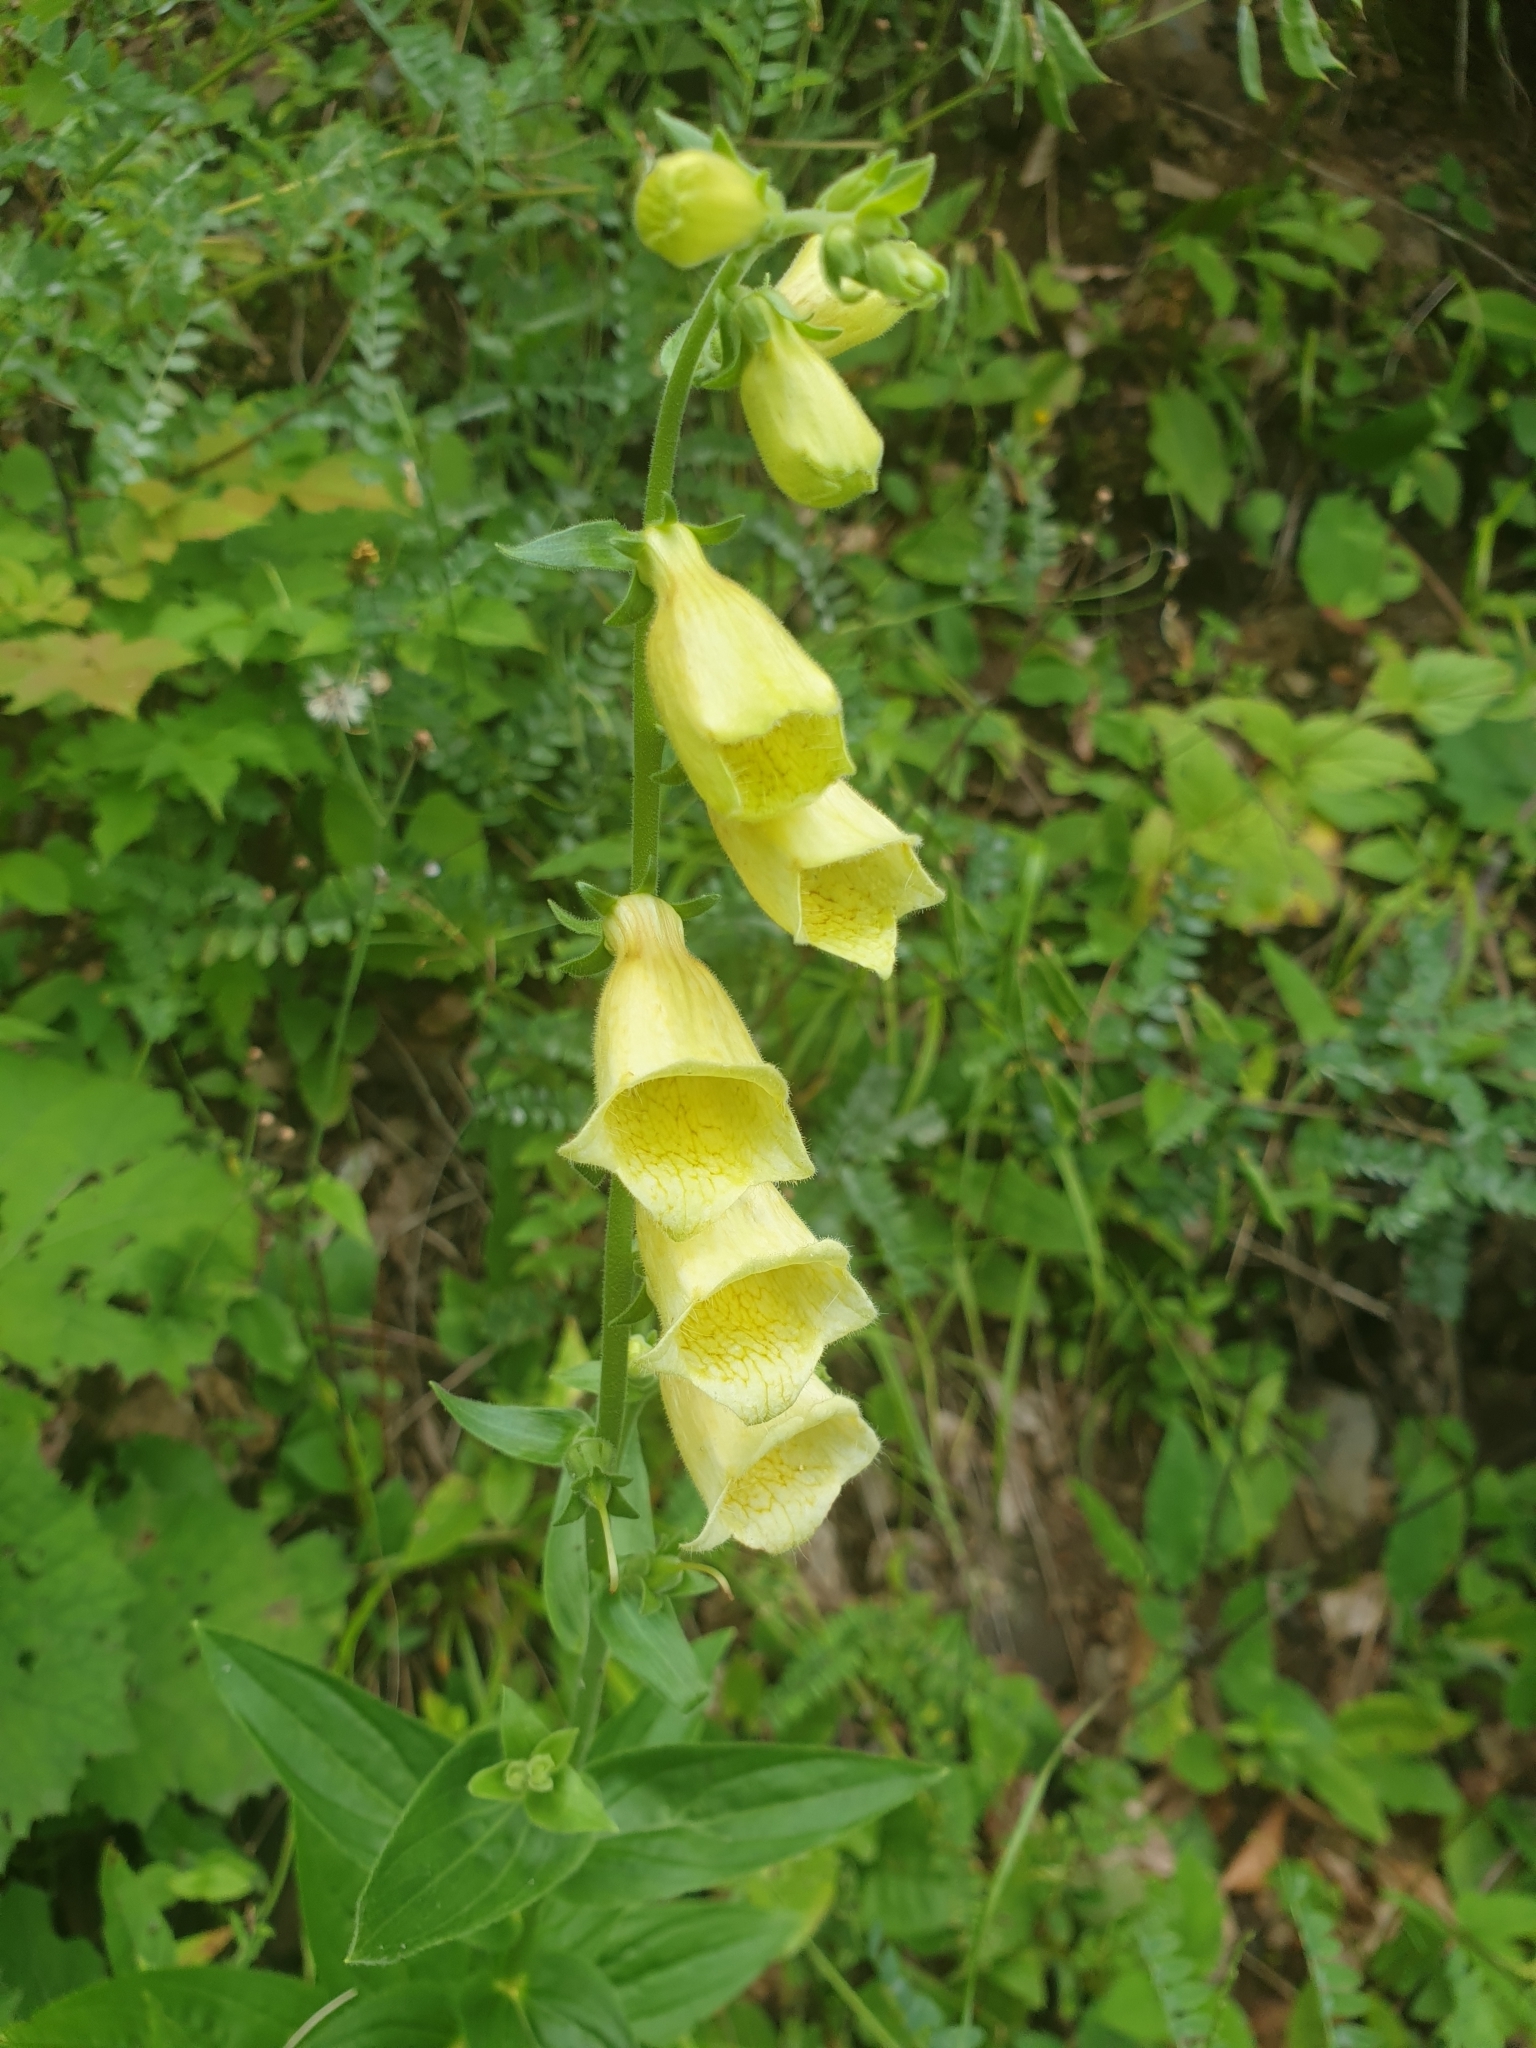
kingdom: Plantae
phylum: Tracheophyta
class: Magnoliopsida
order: Lamiales
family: Plantaginaceae
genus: Digitalis
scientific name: Digitalis grandiflora
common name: Yellow foxglove
